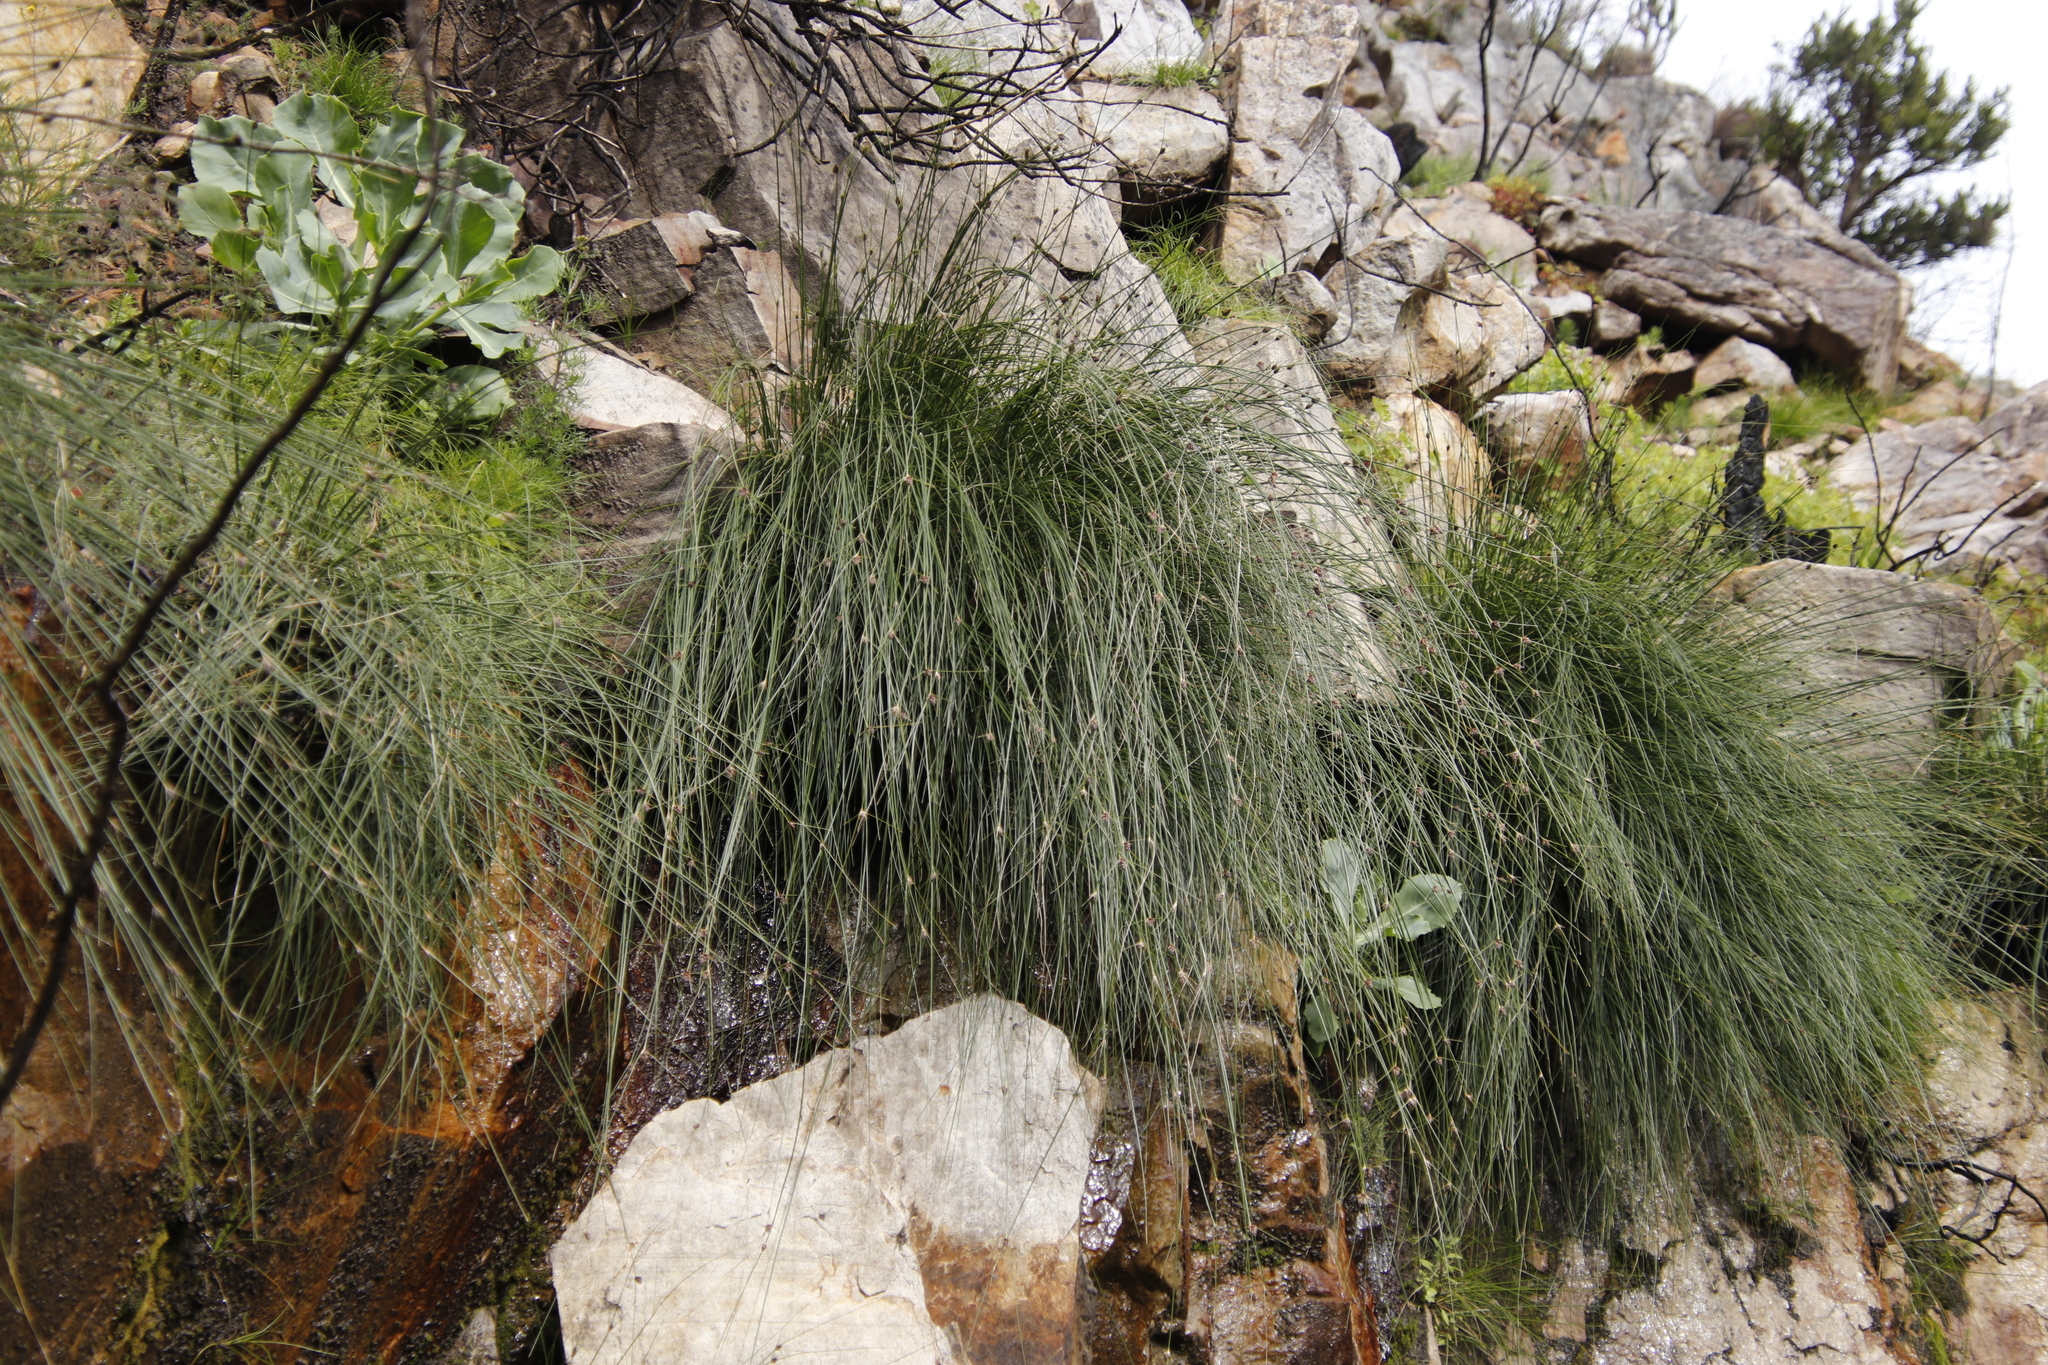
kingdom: Plantae
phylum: Tracheophyta
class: Liliopsida
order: Poales
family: Cyperaceae
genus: Ficinia
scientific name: Ficinia brevifolia
